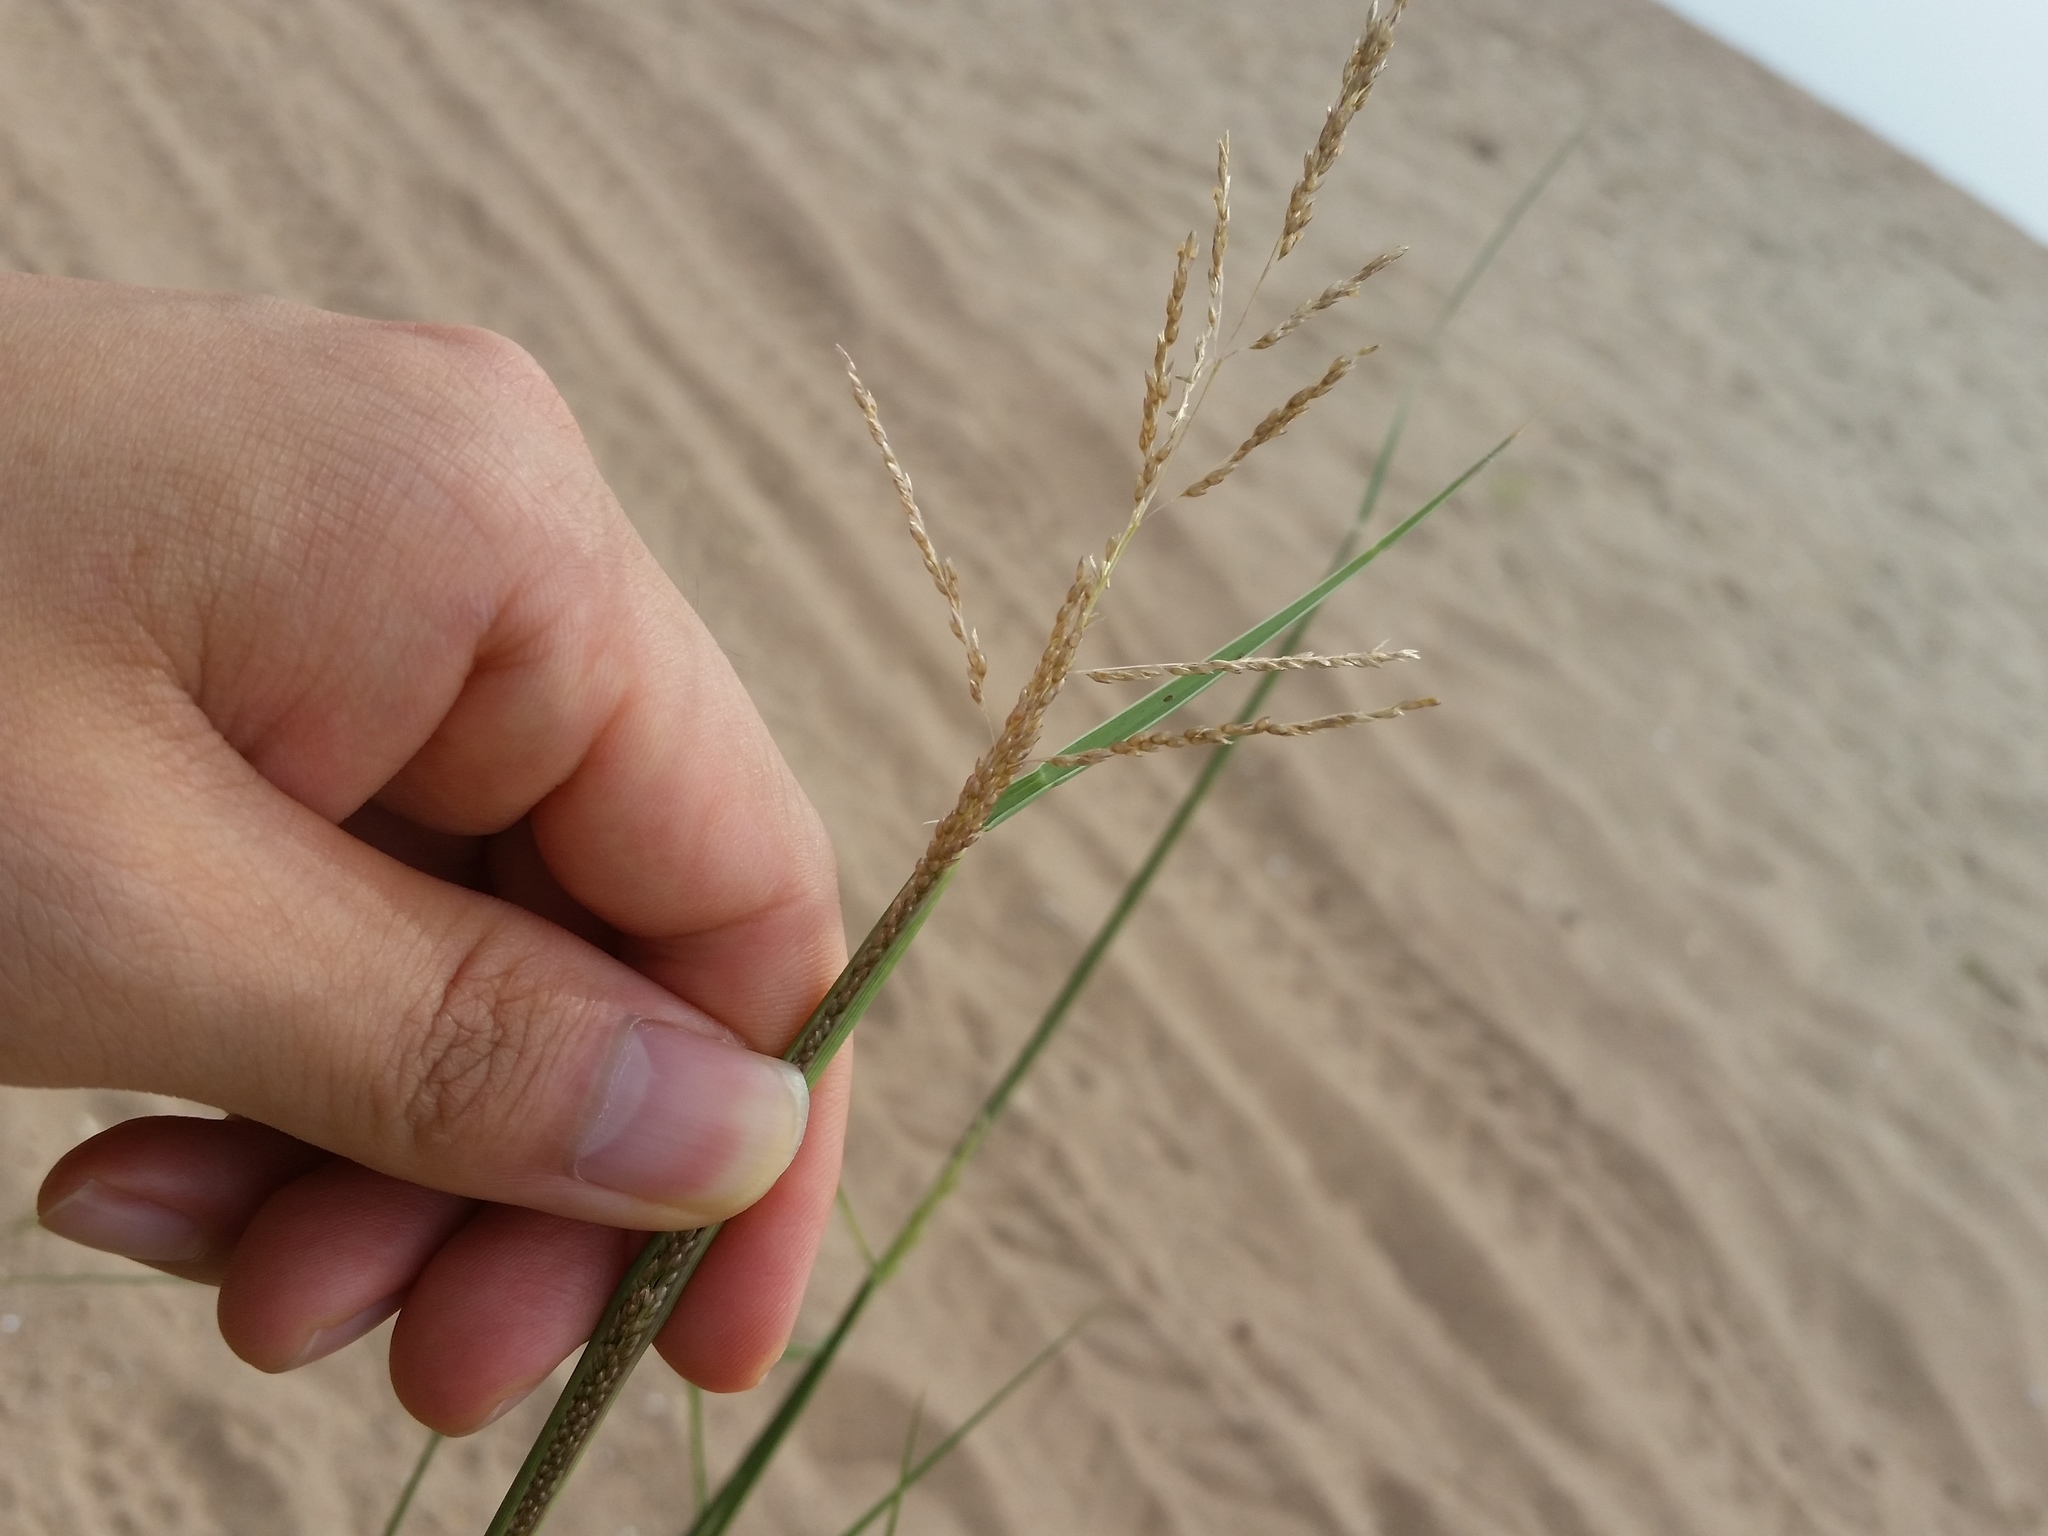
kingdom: Plantae
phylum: Tracheophyta
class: Liliopsida
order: Poales
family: Poaceae
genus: Sporobolus
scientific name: Sporobolus cryptandrus
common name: Sand dropseed
